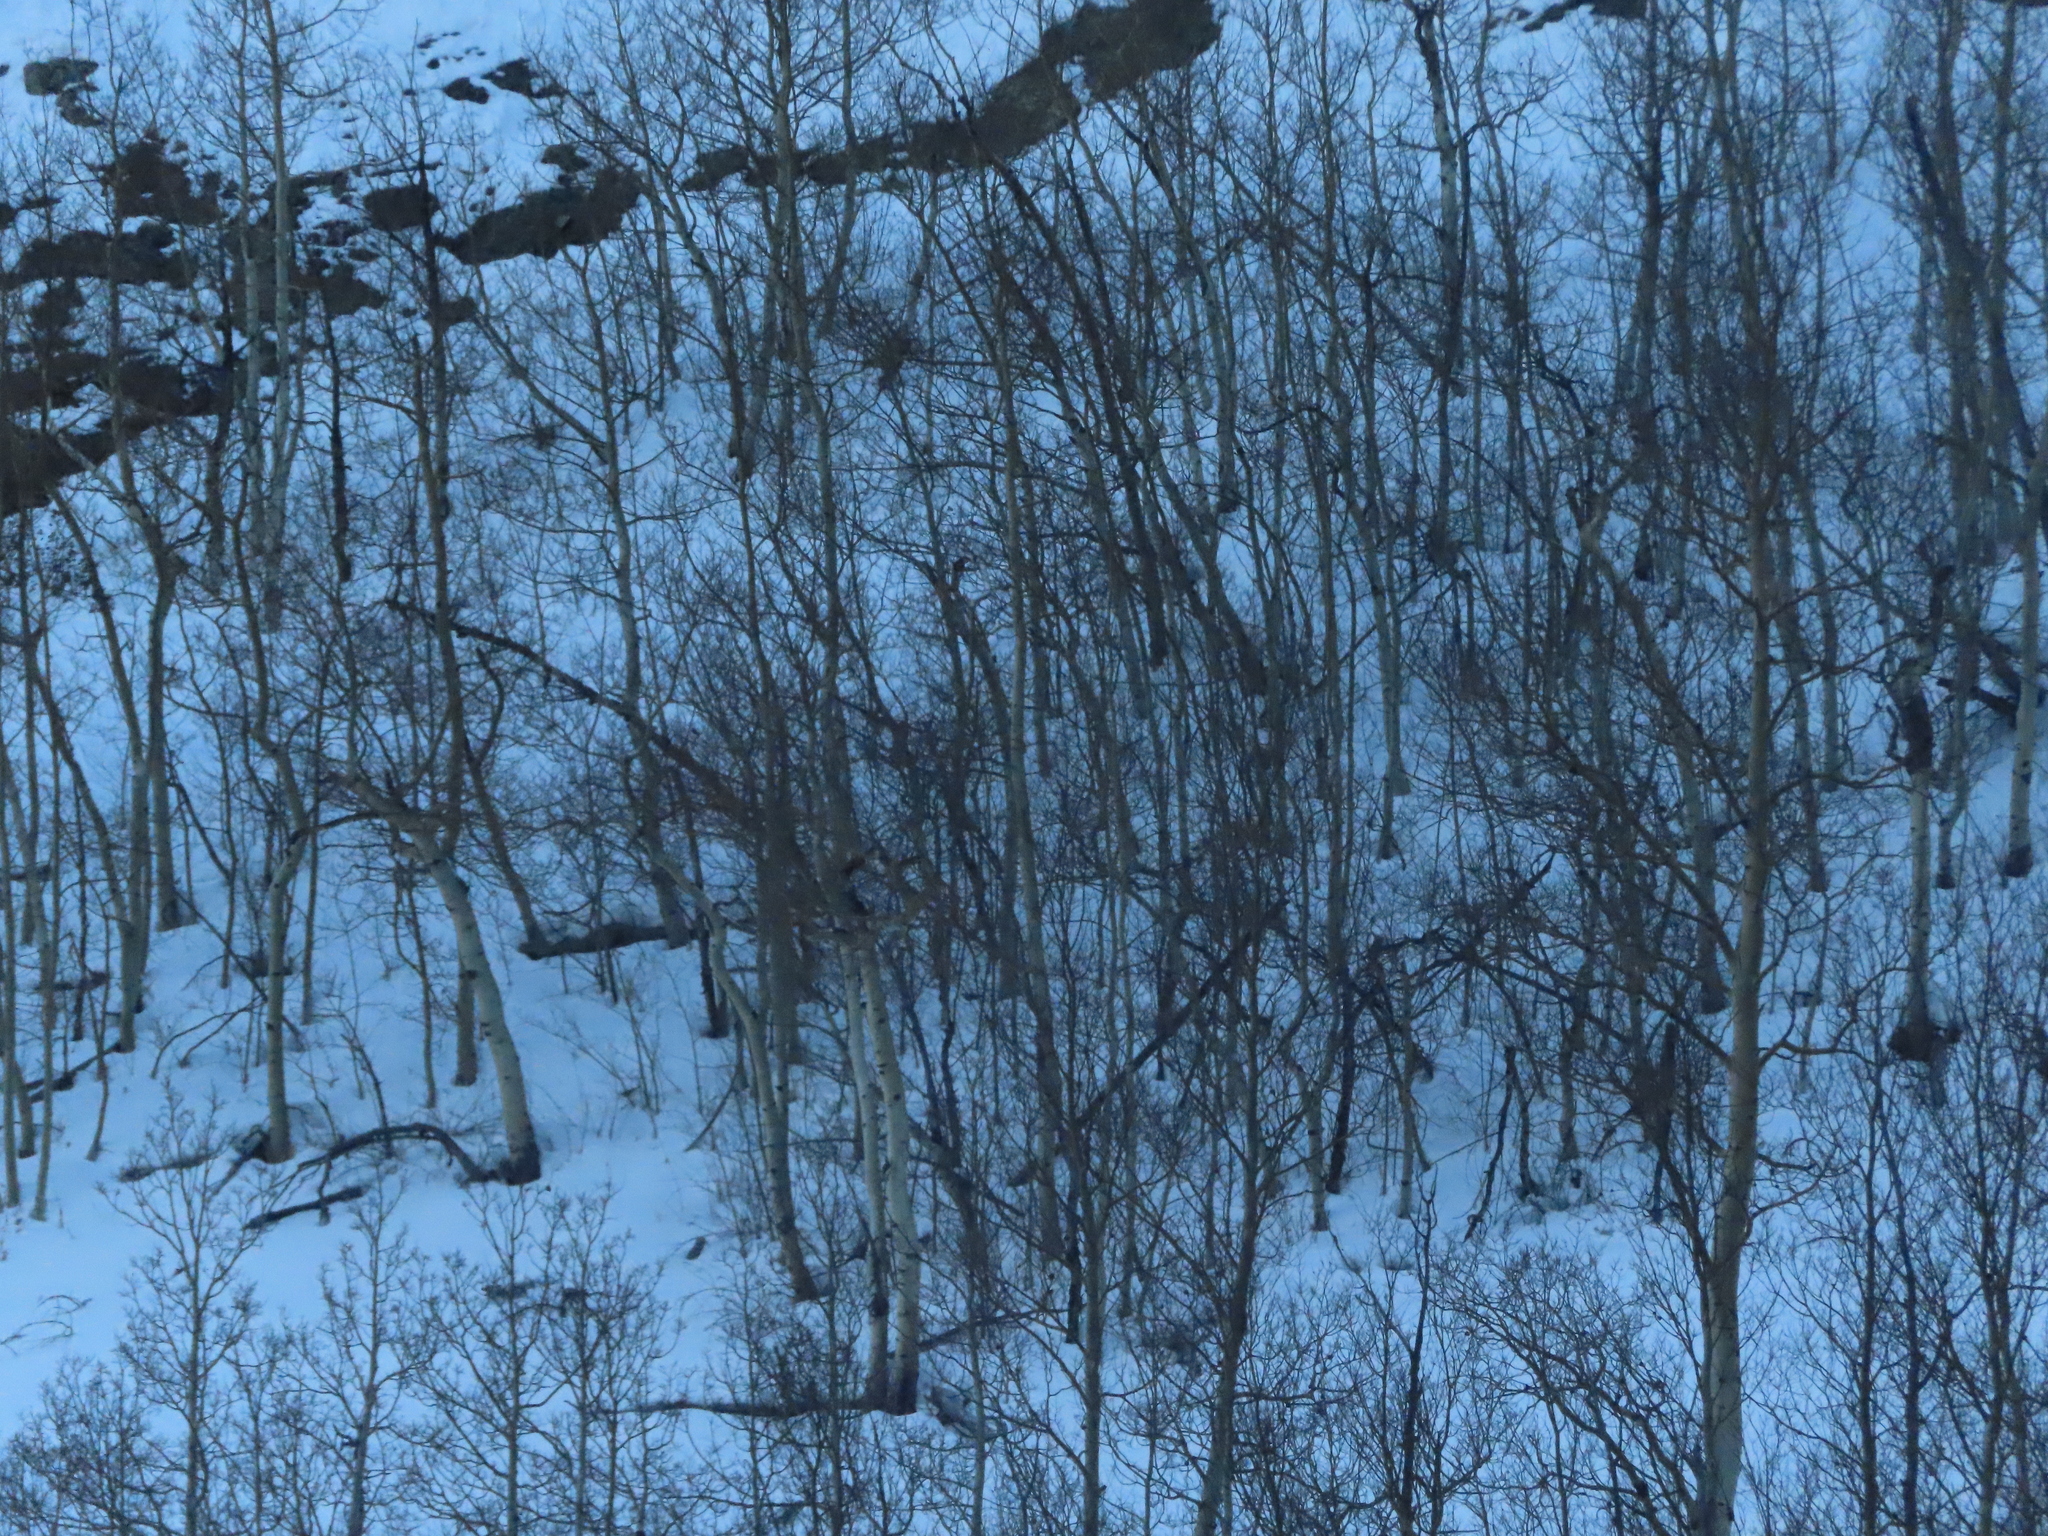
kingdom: Plantae
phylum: Tracheophyta
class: Magnoliopsida
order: Malpighiales
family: Salicaceae
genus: Populus
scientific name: Populus tremuloides
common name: Quaking aspen
